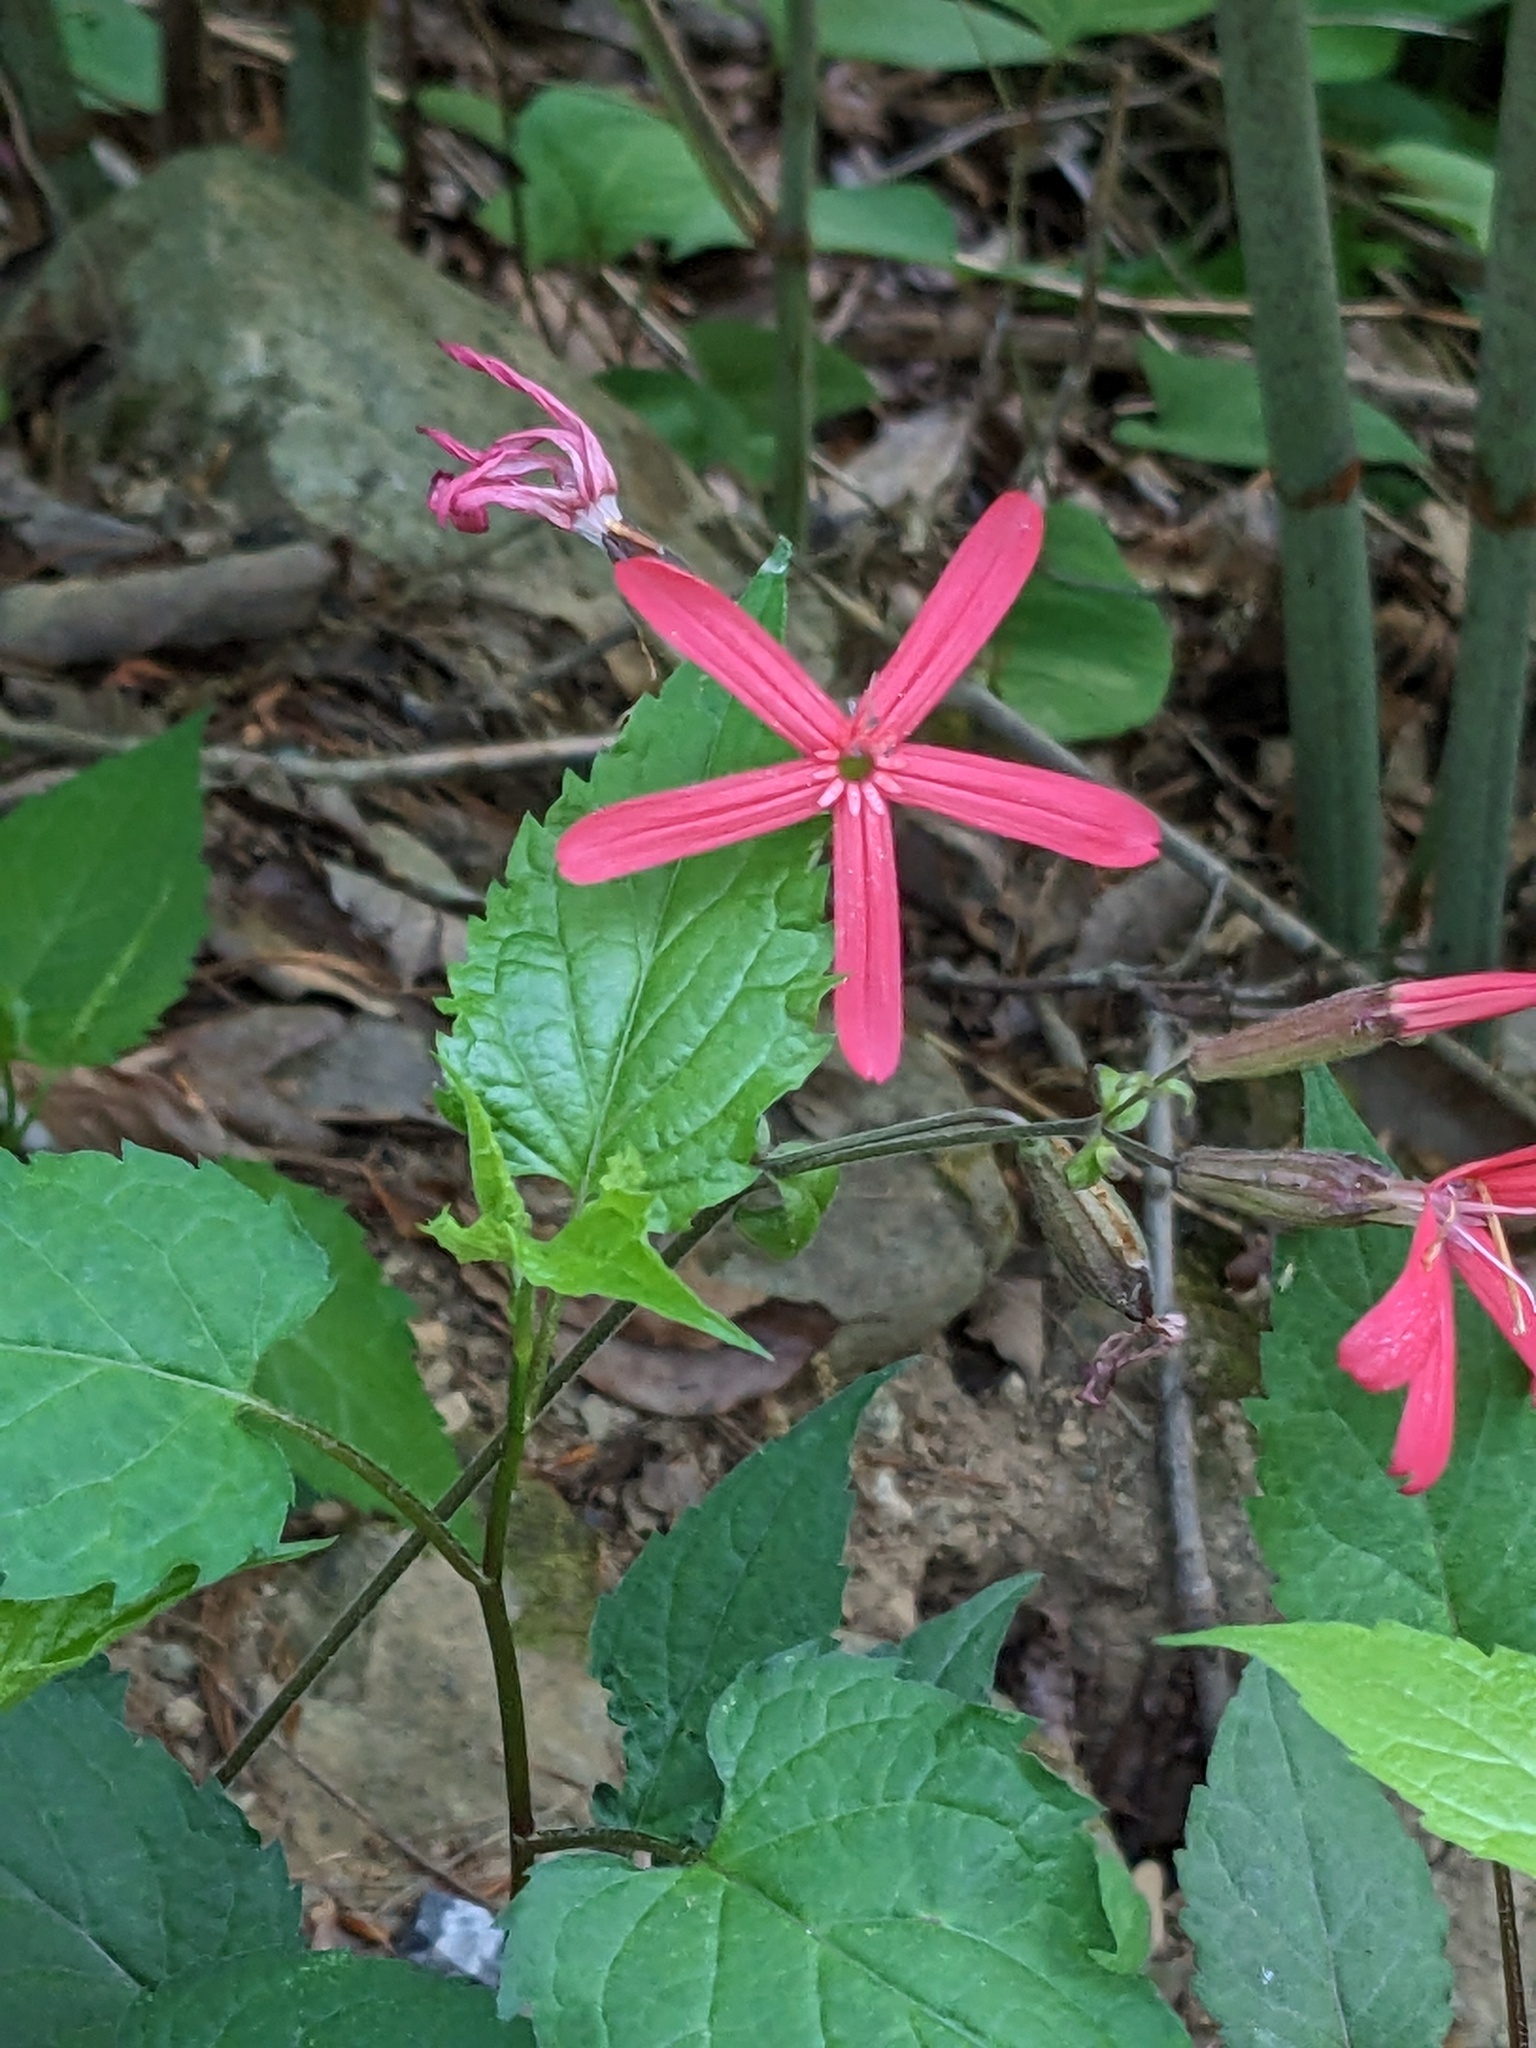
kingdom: Plantae
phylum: Tracheophyta
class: Magnoliopsida
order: Caryophyllales
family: Caryophyllaceae
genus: Silene
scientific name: Silene virginica
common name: Fire-pink
